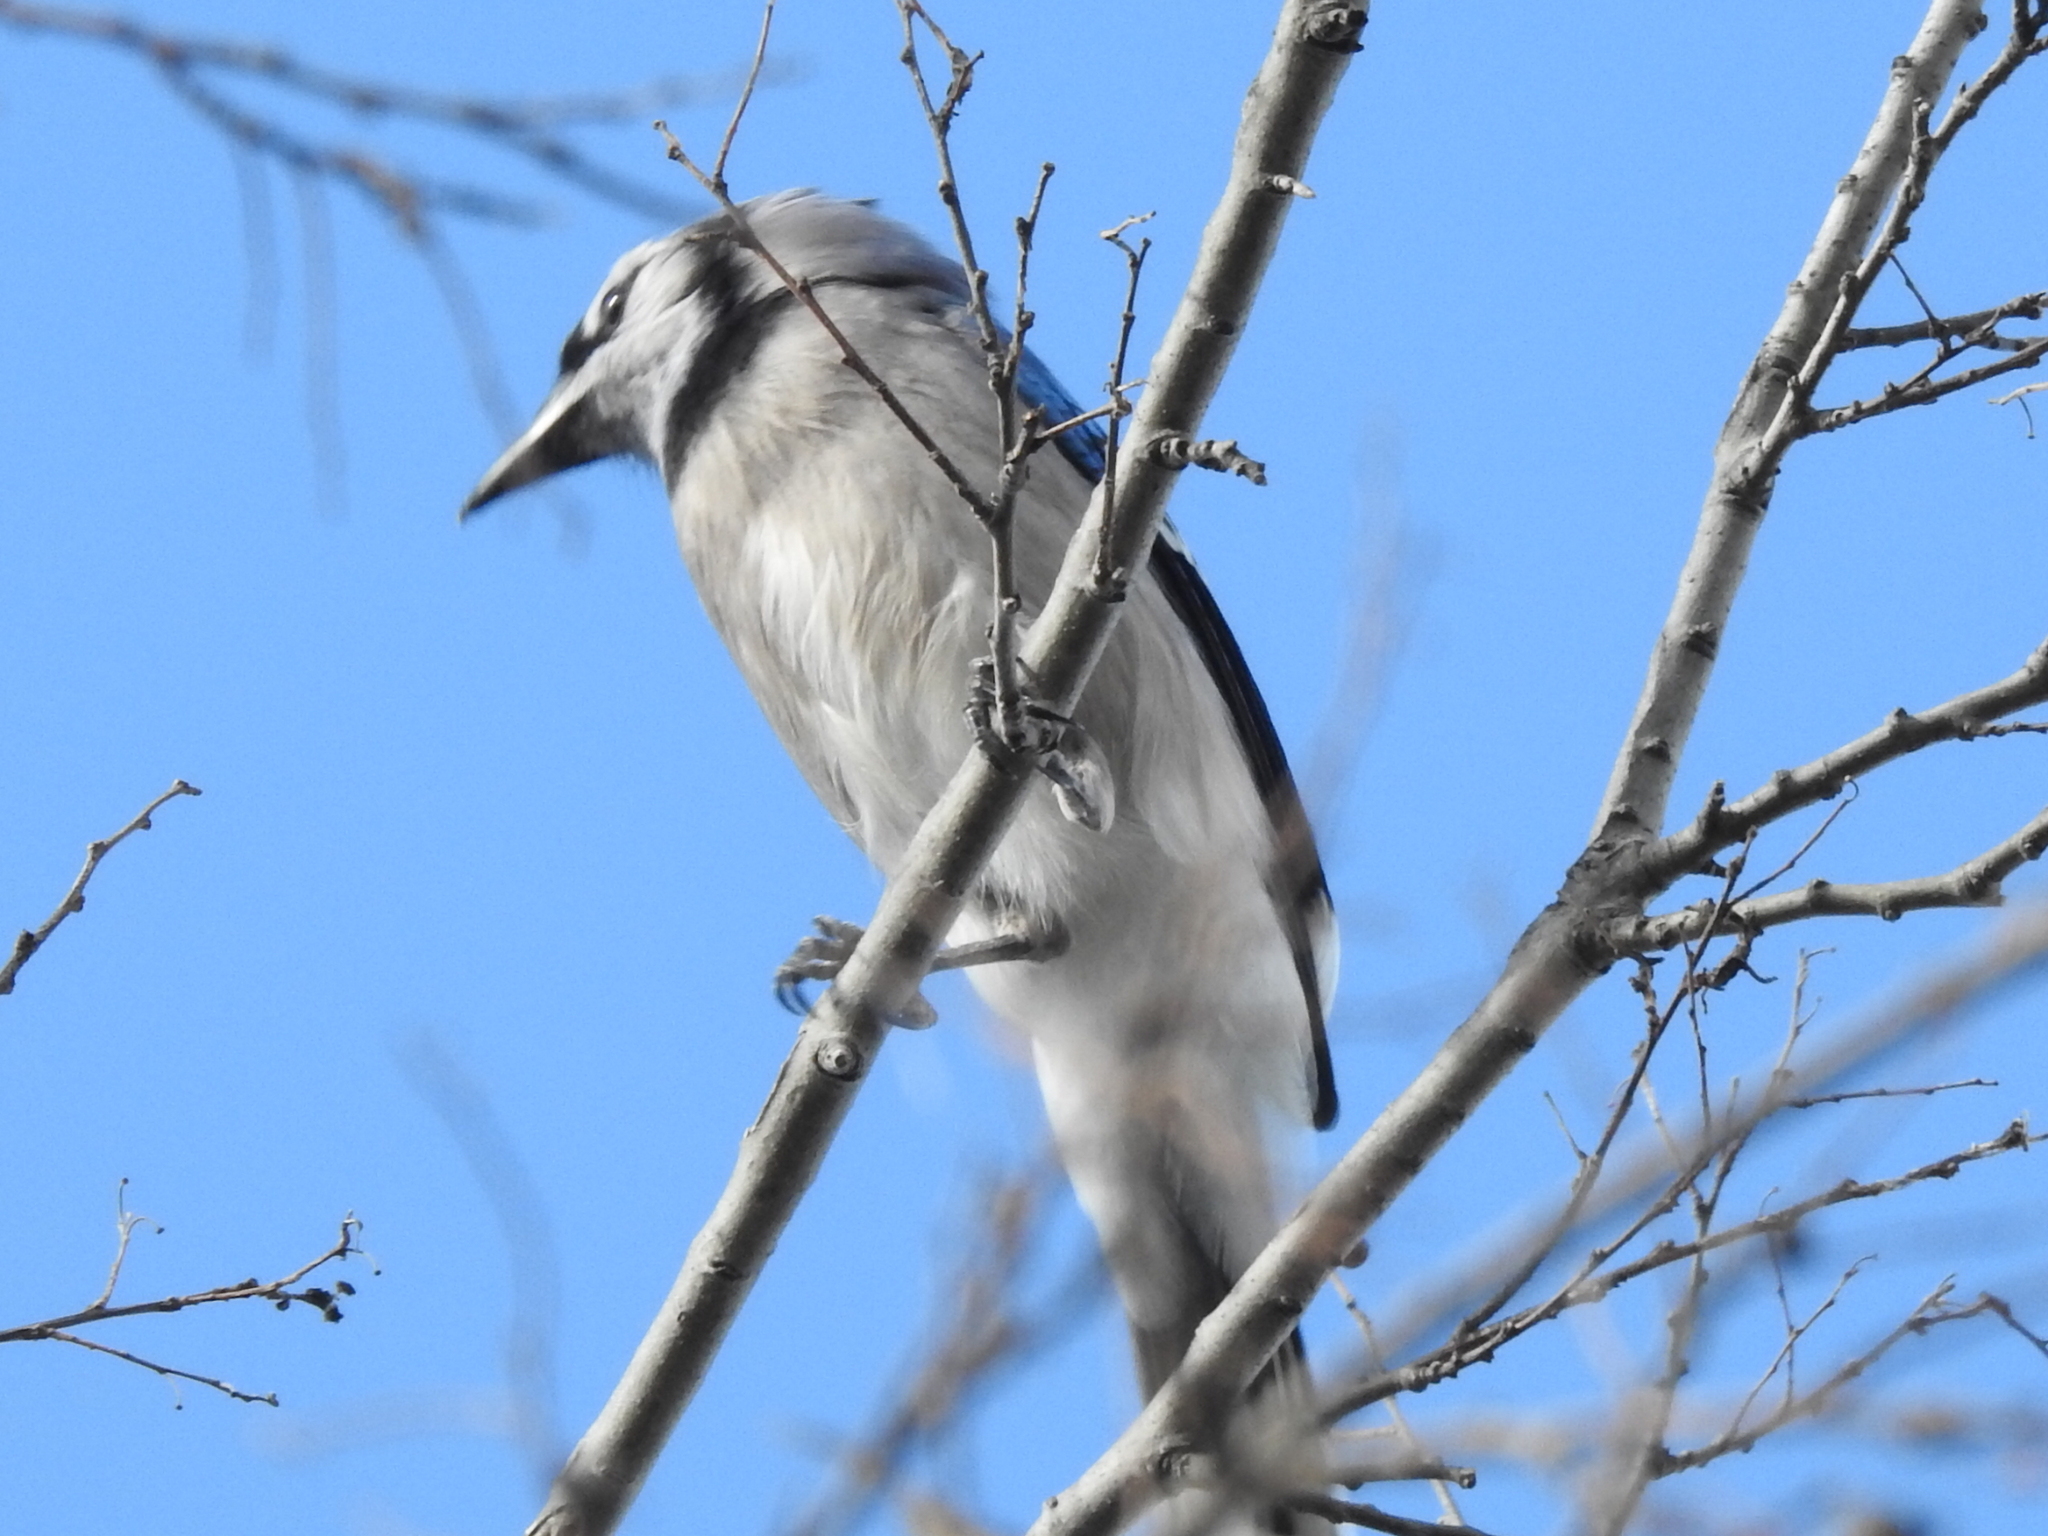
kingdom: Animalia
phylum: Chordata
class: Aves
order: Passeriformes
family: Corvidae
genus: Cyanocitta
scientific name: Cyanocitta cristata
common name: Blue jay
